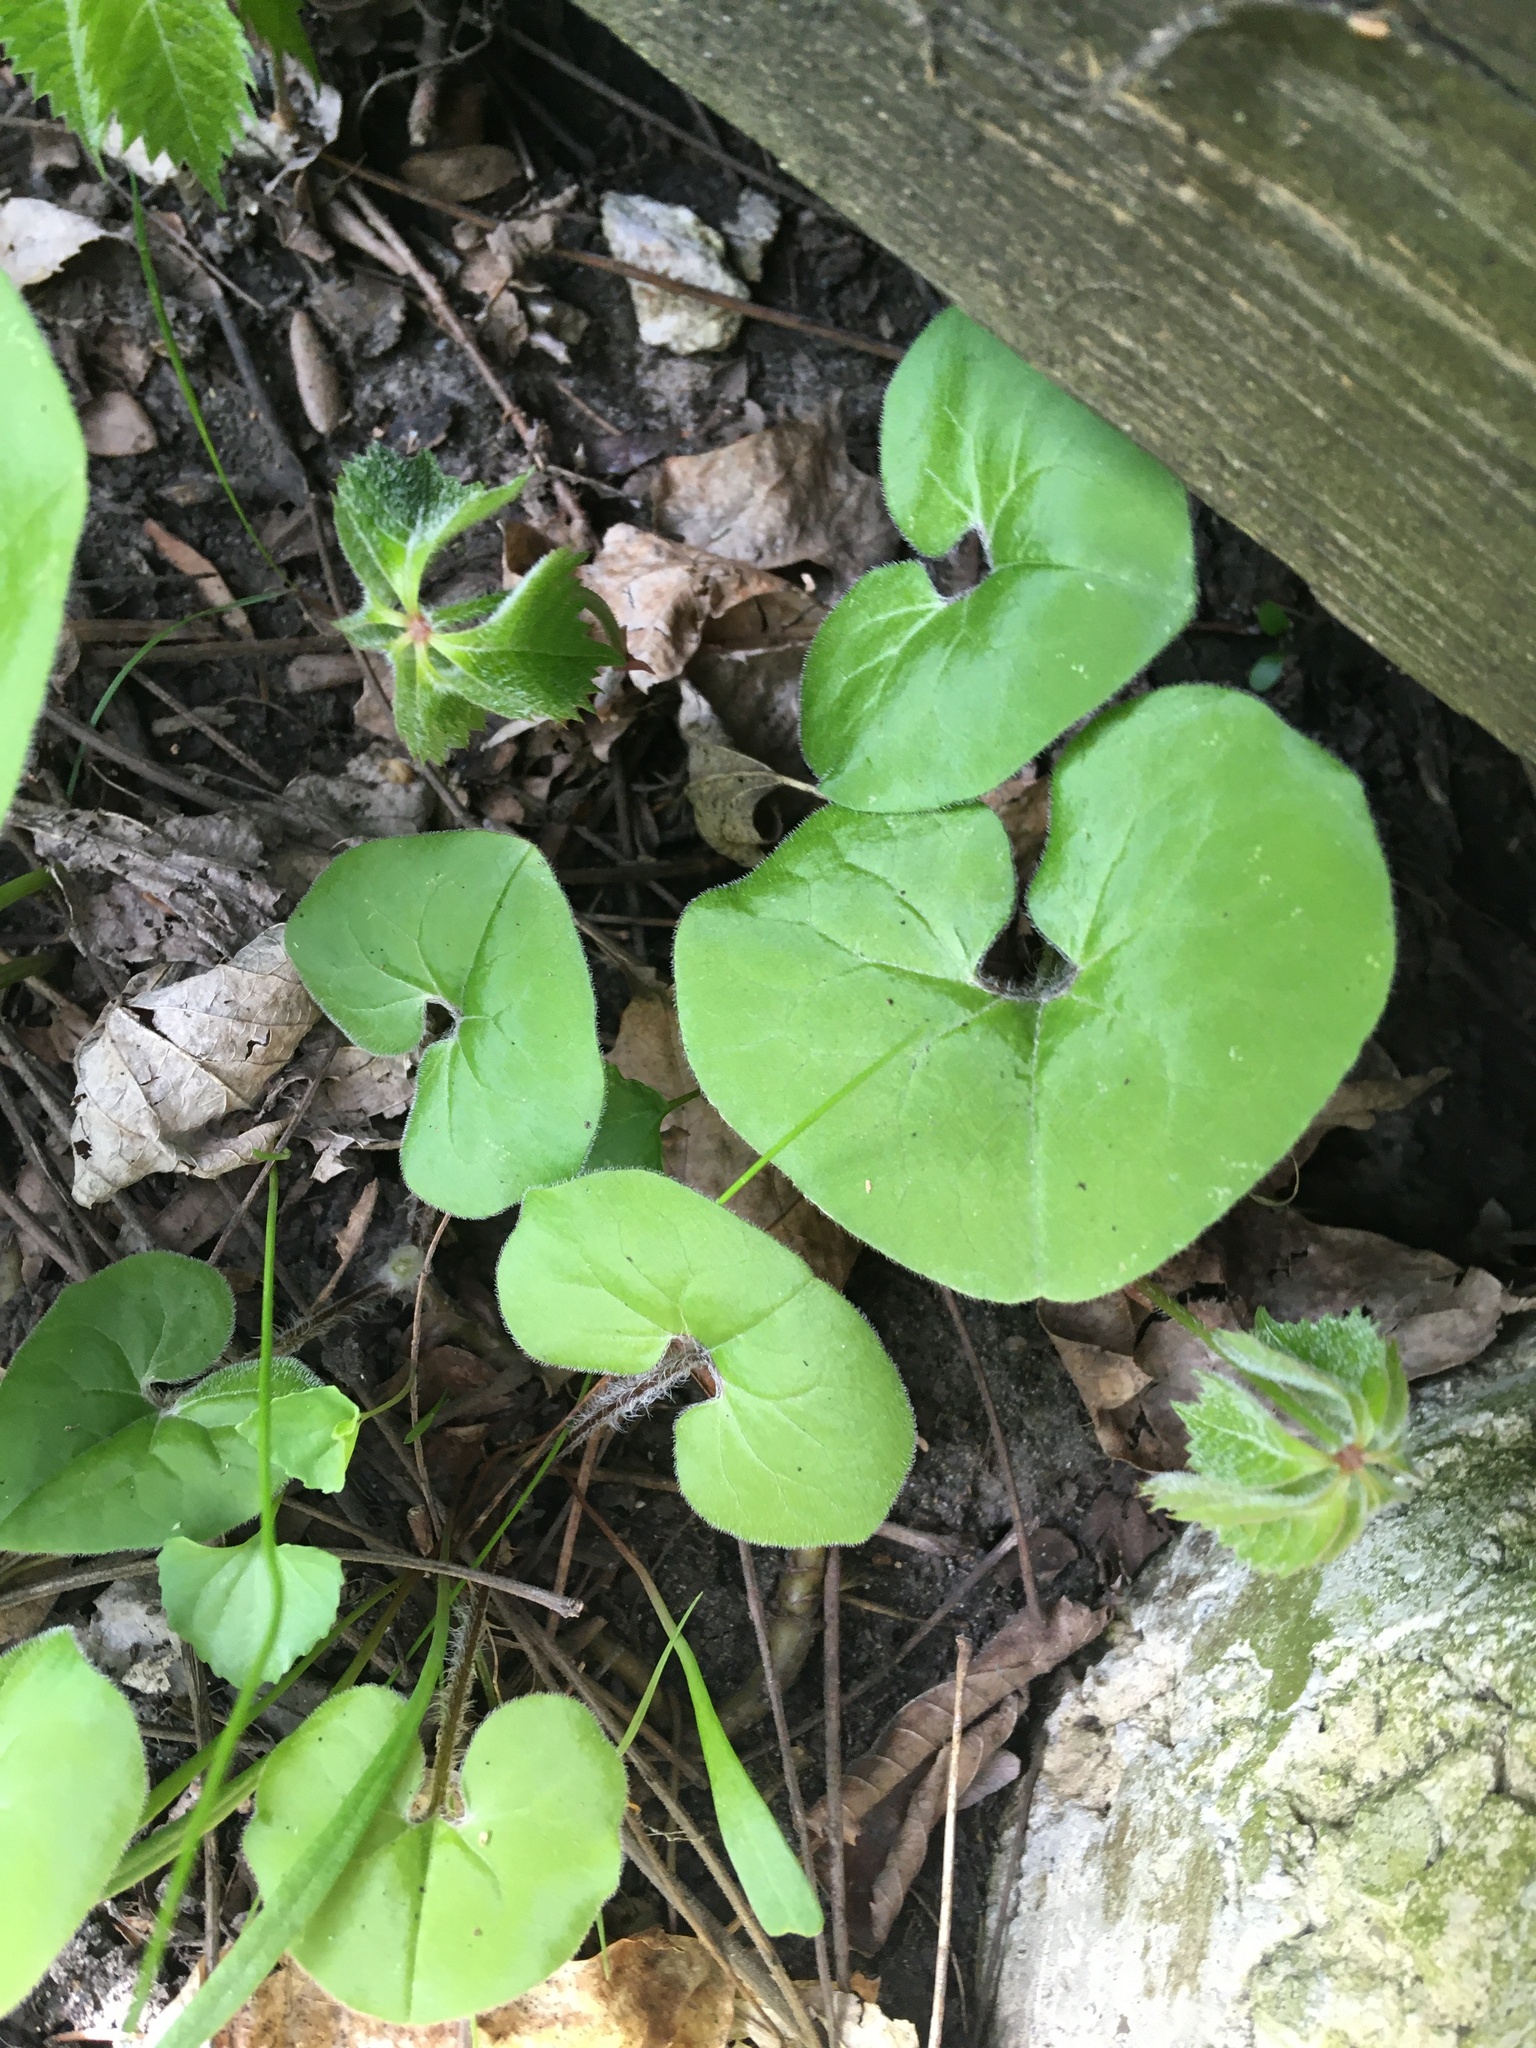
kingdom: Plantae
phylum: Tracheophyta
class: Magnoliopsida
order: Piperales
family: Aristolochiaceae
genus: Asarum
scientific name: Asarum canadense
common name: Wild ginger
